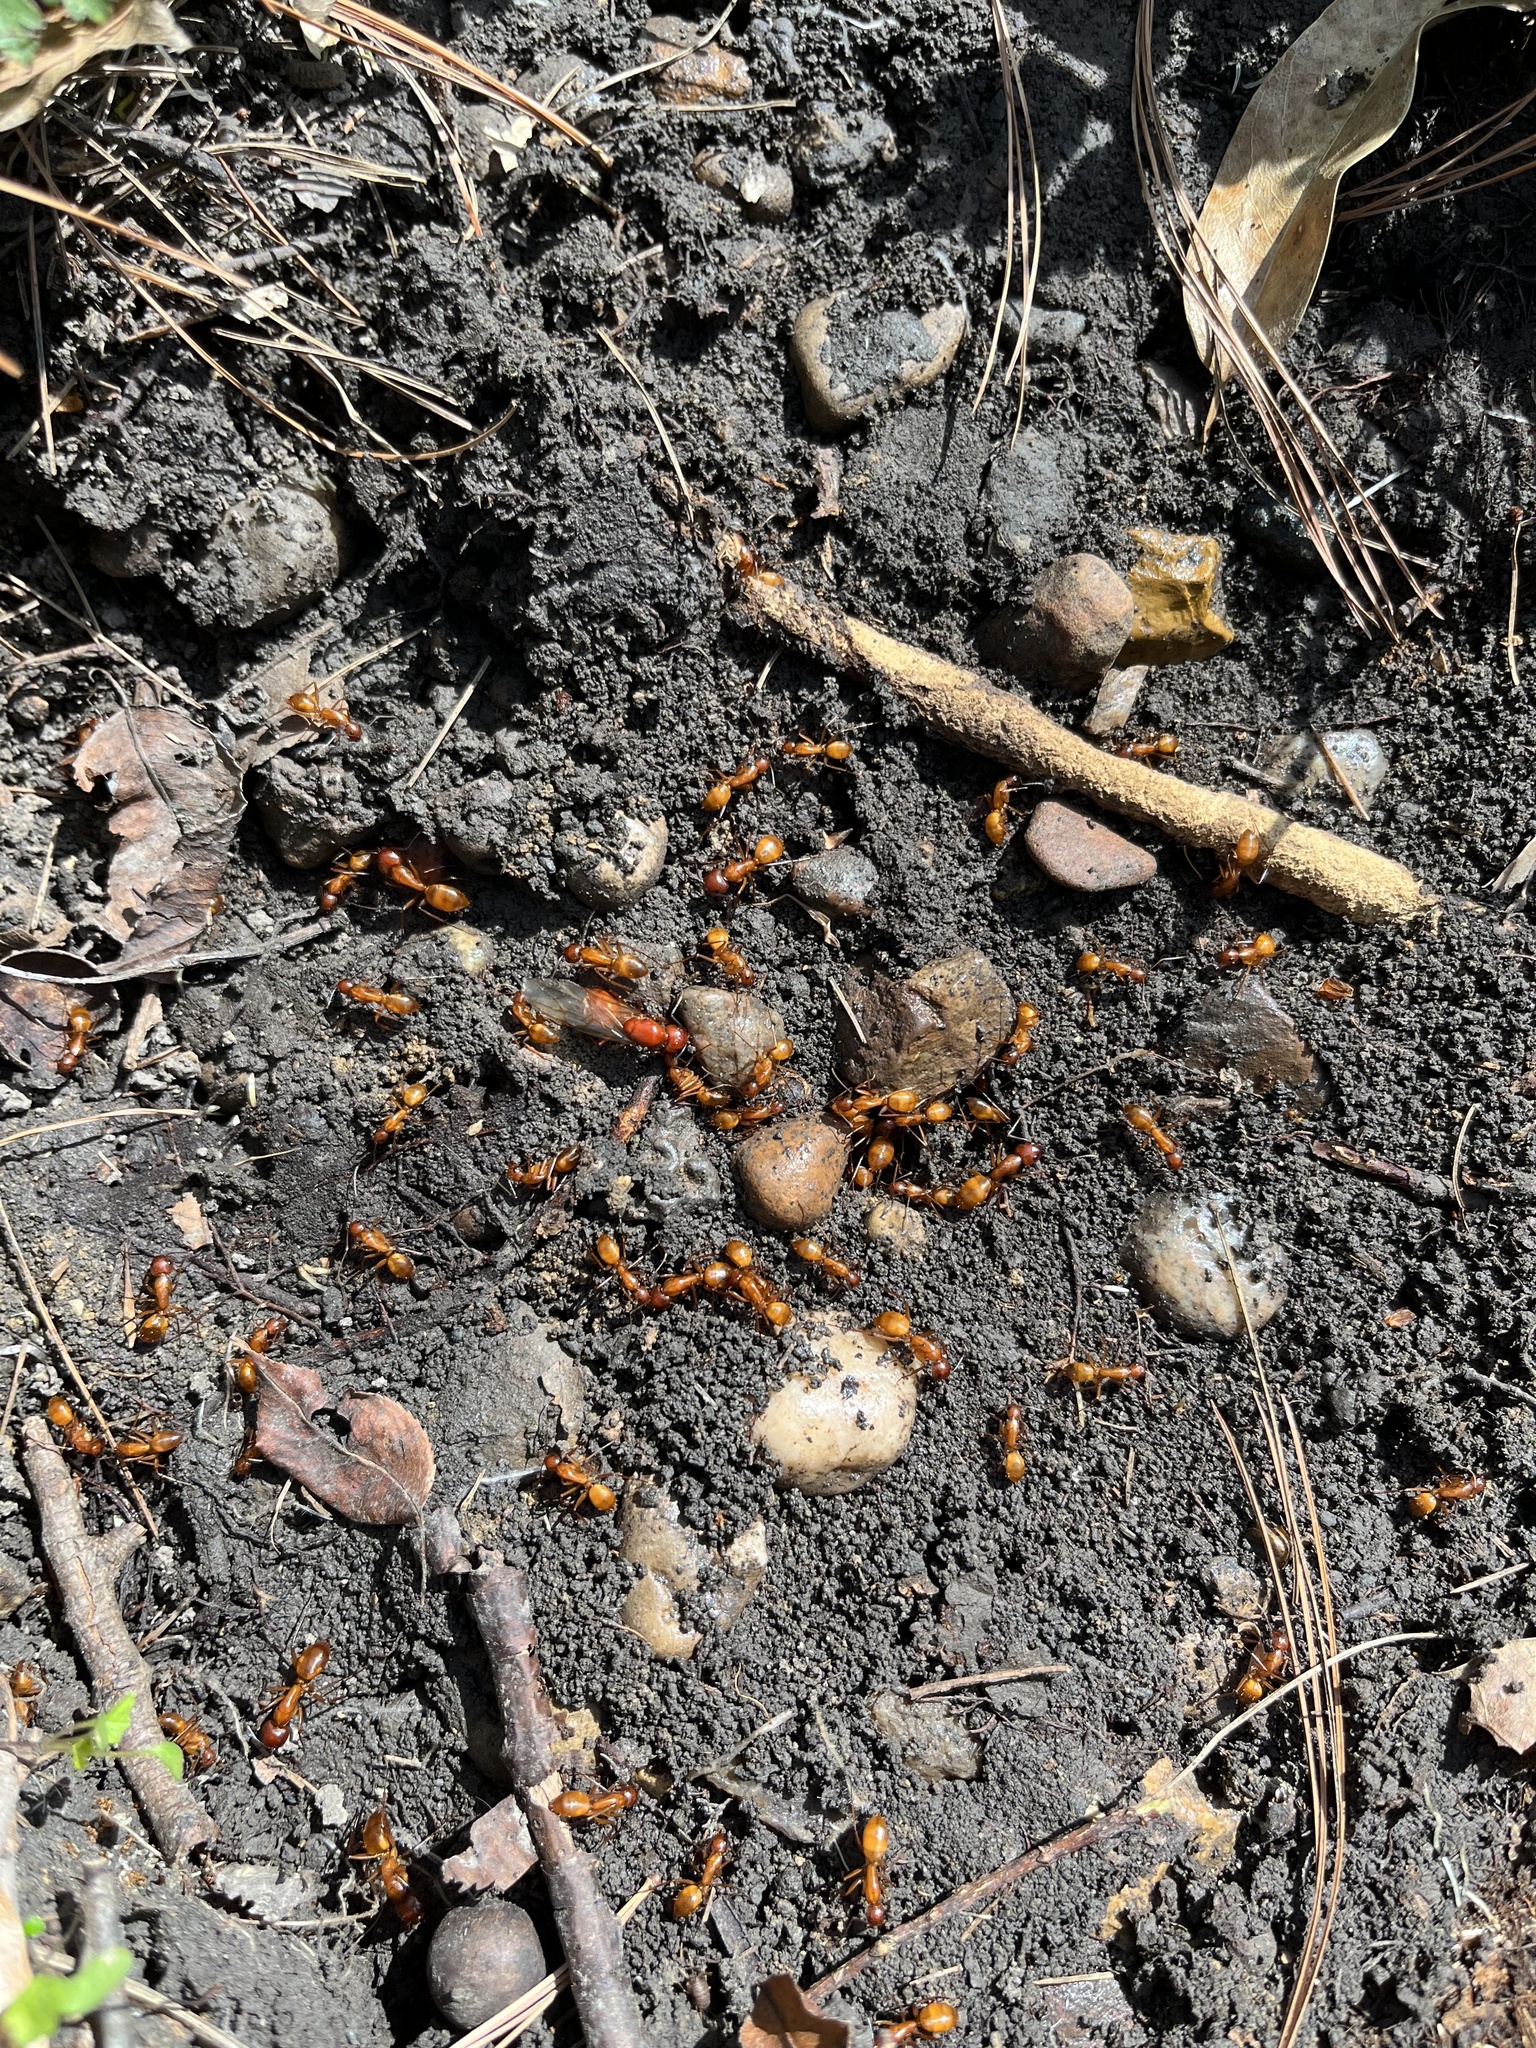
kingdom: Animalia
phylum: Arthropoda
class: Insecta
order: Hymenoptera
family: Formicidae
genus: Camponotus
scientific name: Camponotus castaneus
